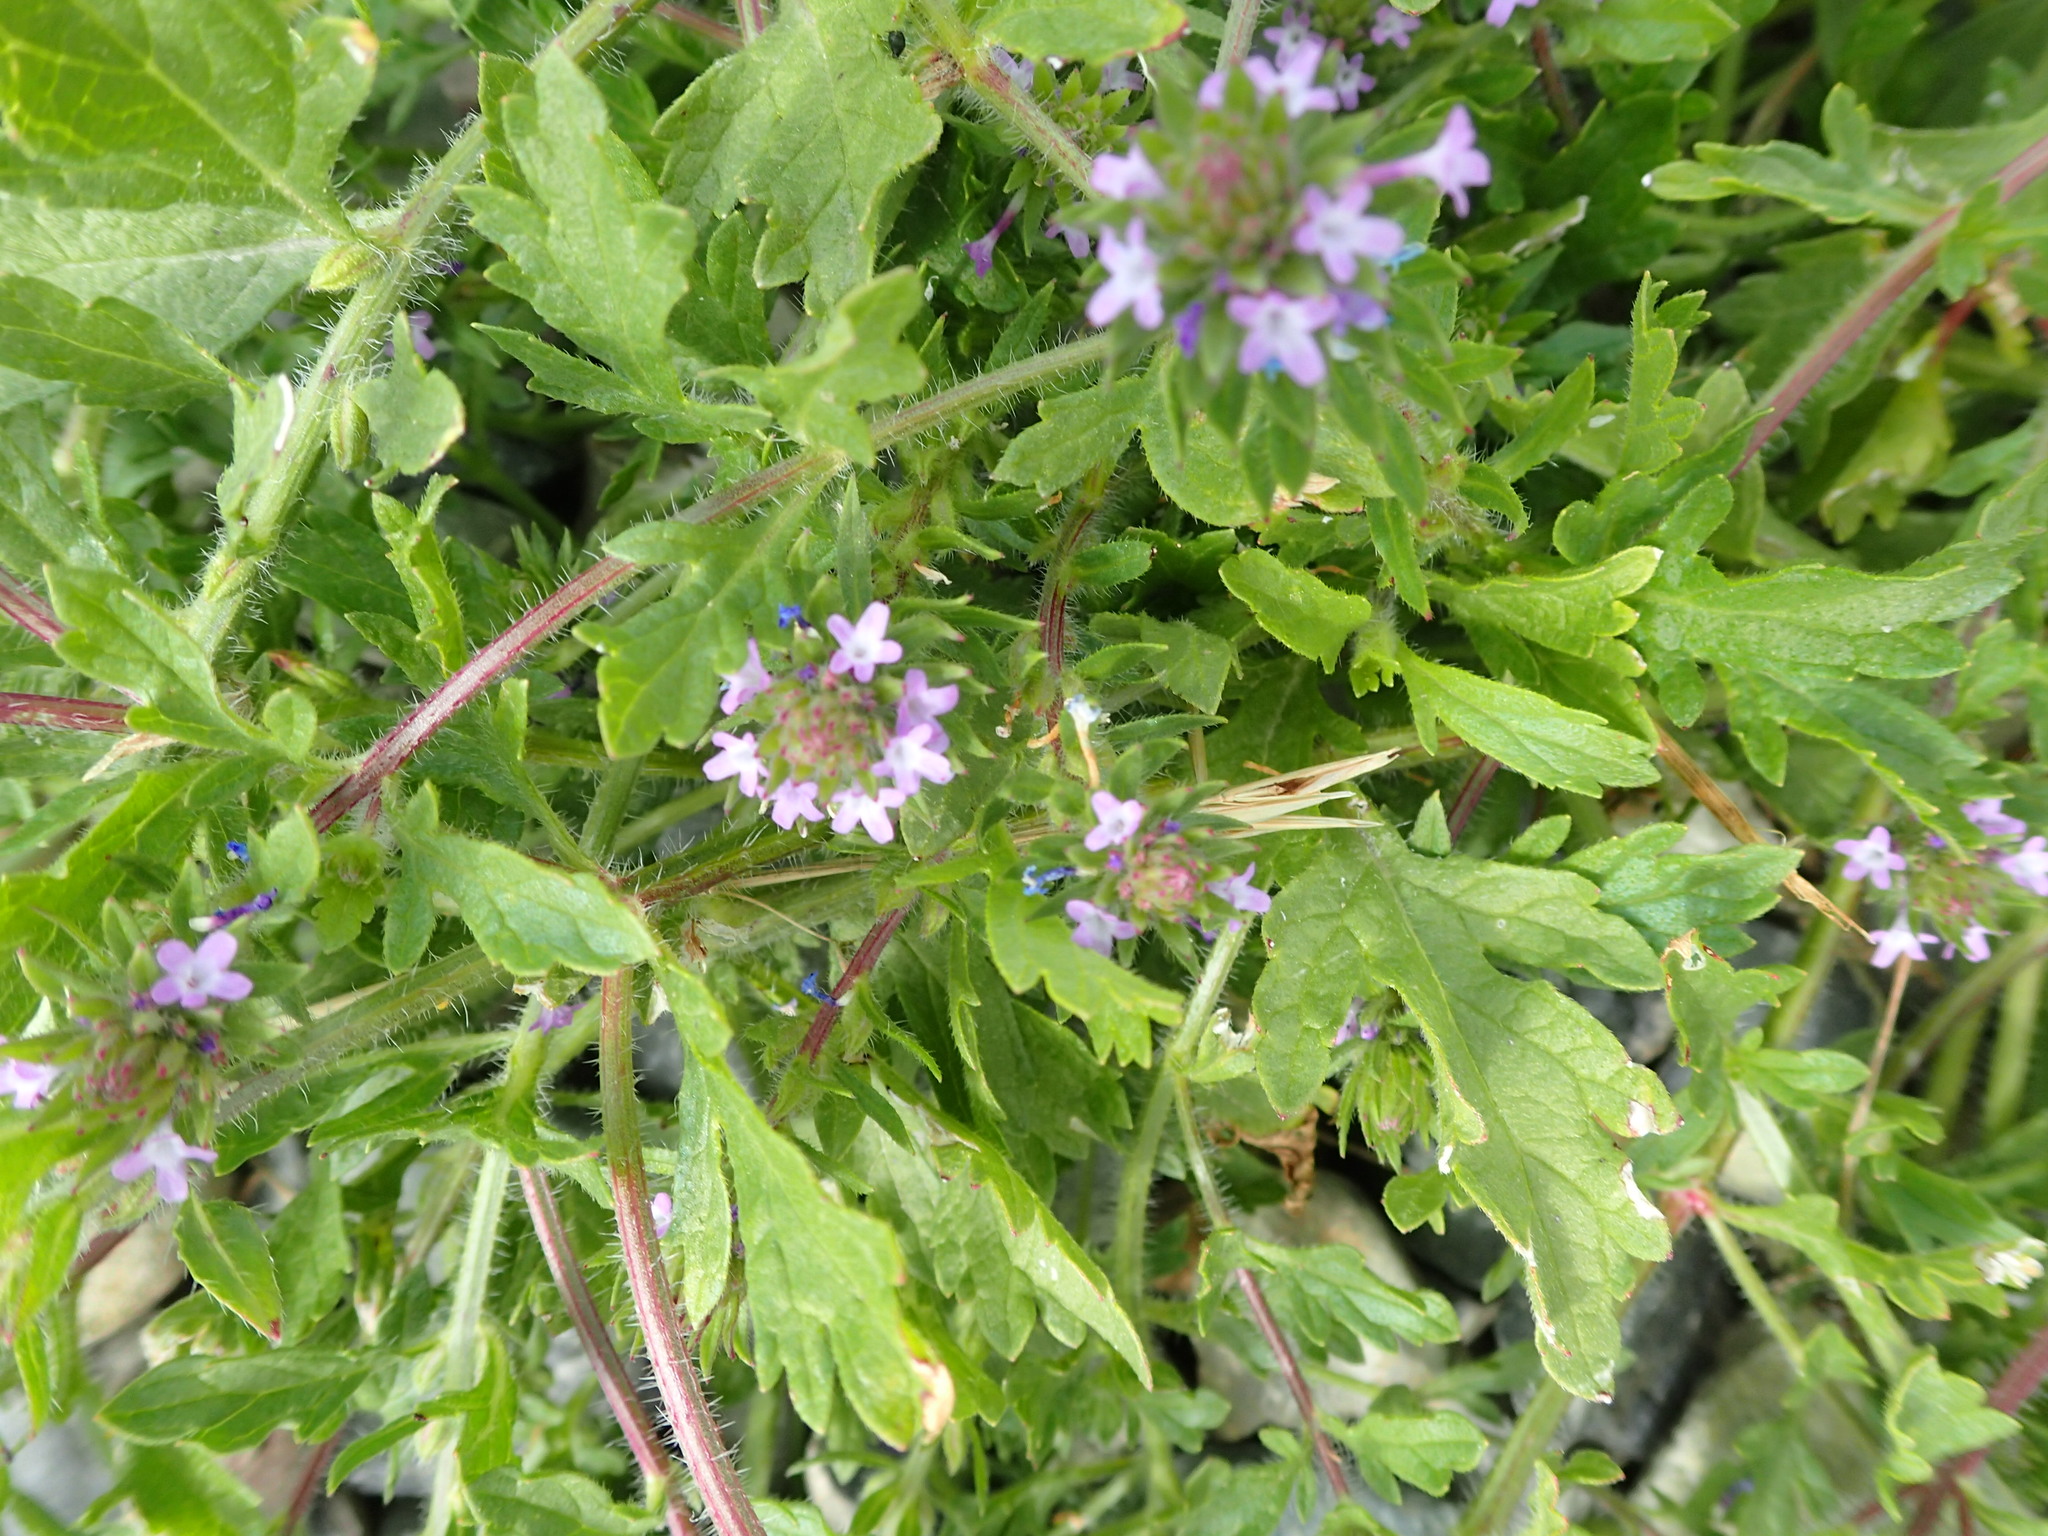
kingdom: Plantae
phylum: Tracheophyta
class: Magnoliopsida
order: Lamiales
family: Verbenaceae
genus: Verbena
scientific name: Verbena bracteata
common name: Bracted vervain
